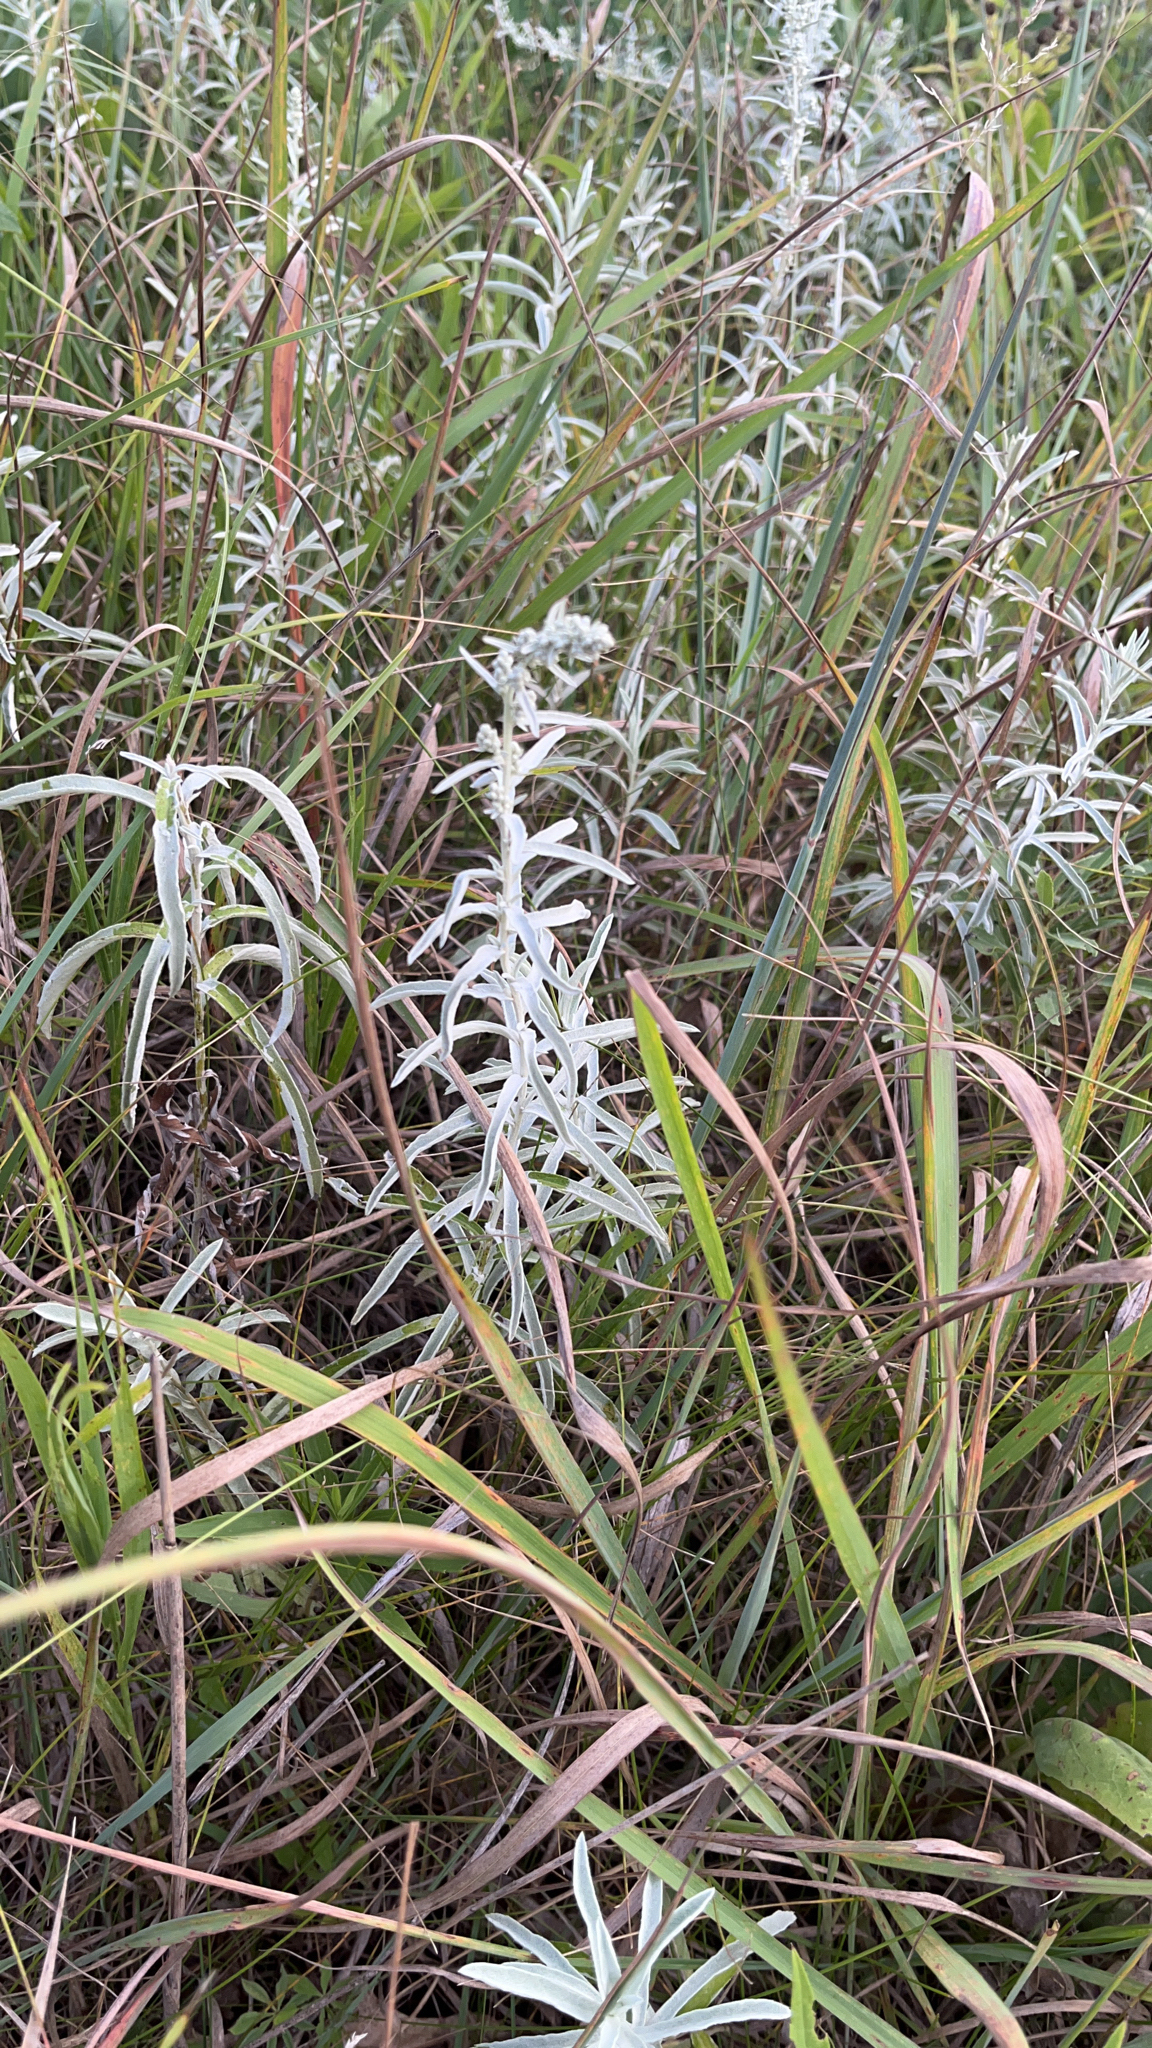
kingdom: Plantae
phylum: Tracheophyta
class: Magnoliopsida
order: Asterales
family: Asteraceae
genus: Artemisia
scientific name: Artemisia ludoviciana
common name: Western mugwort
